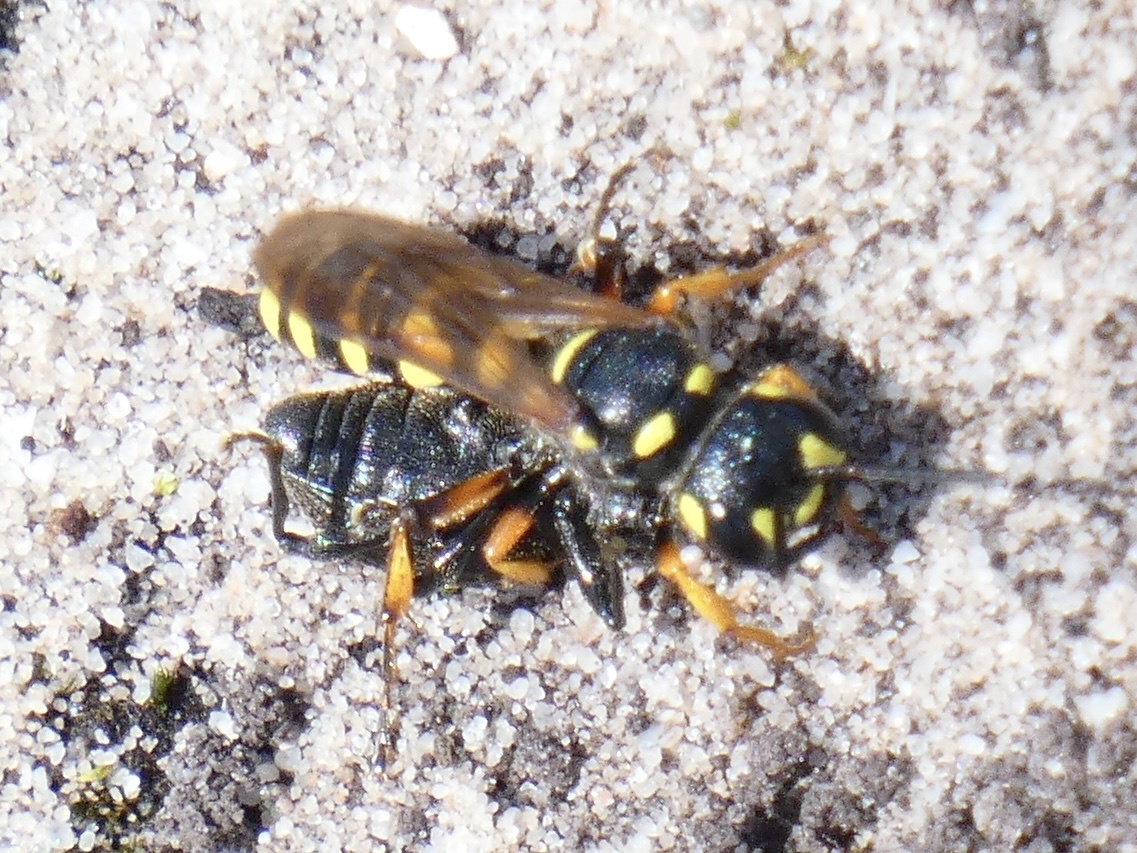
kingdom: Animalia
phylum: Arthropoda
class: Insecta
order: Hymenoptera
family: Crabronidae
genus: Cerceris
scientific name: Cerceris arenaria
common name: Sand tailed digger wasp
